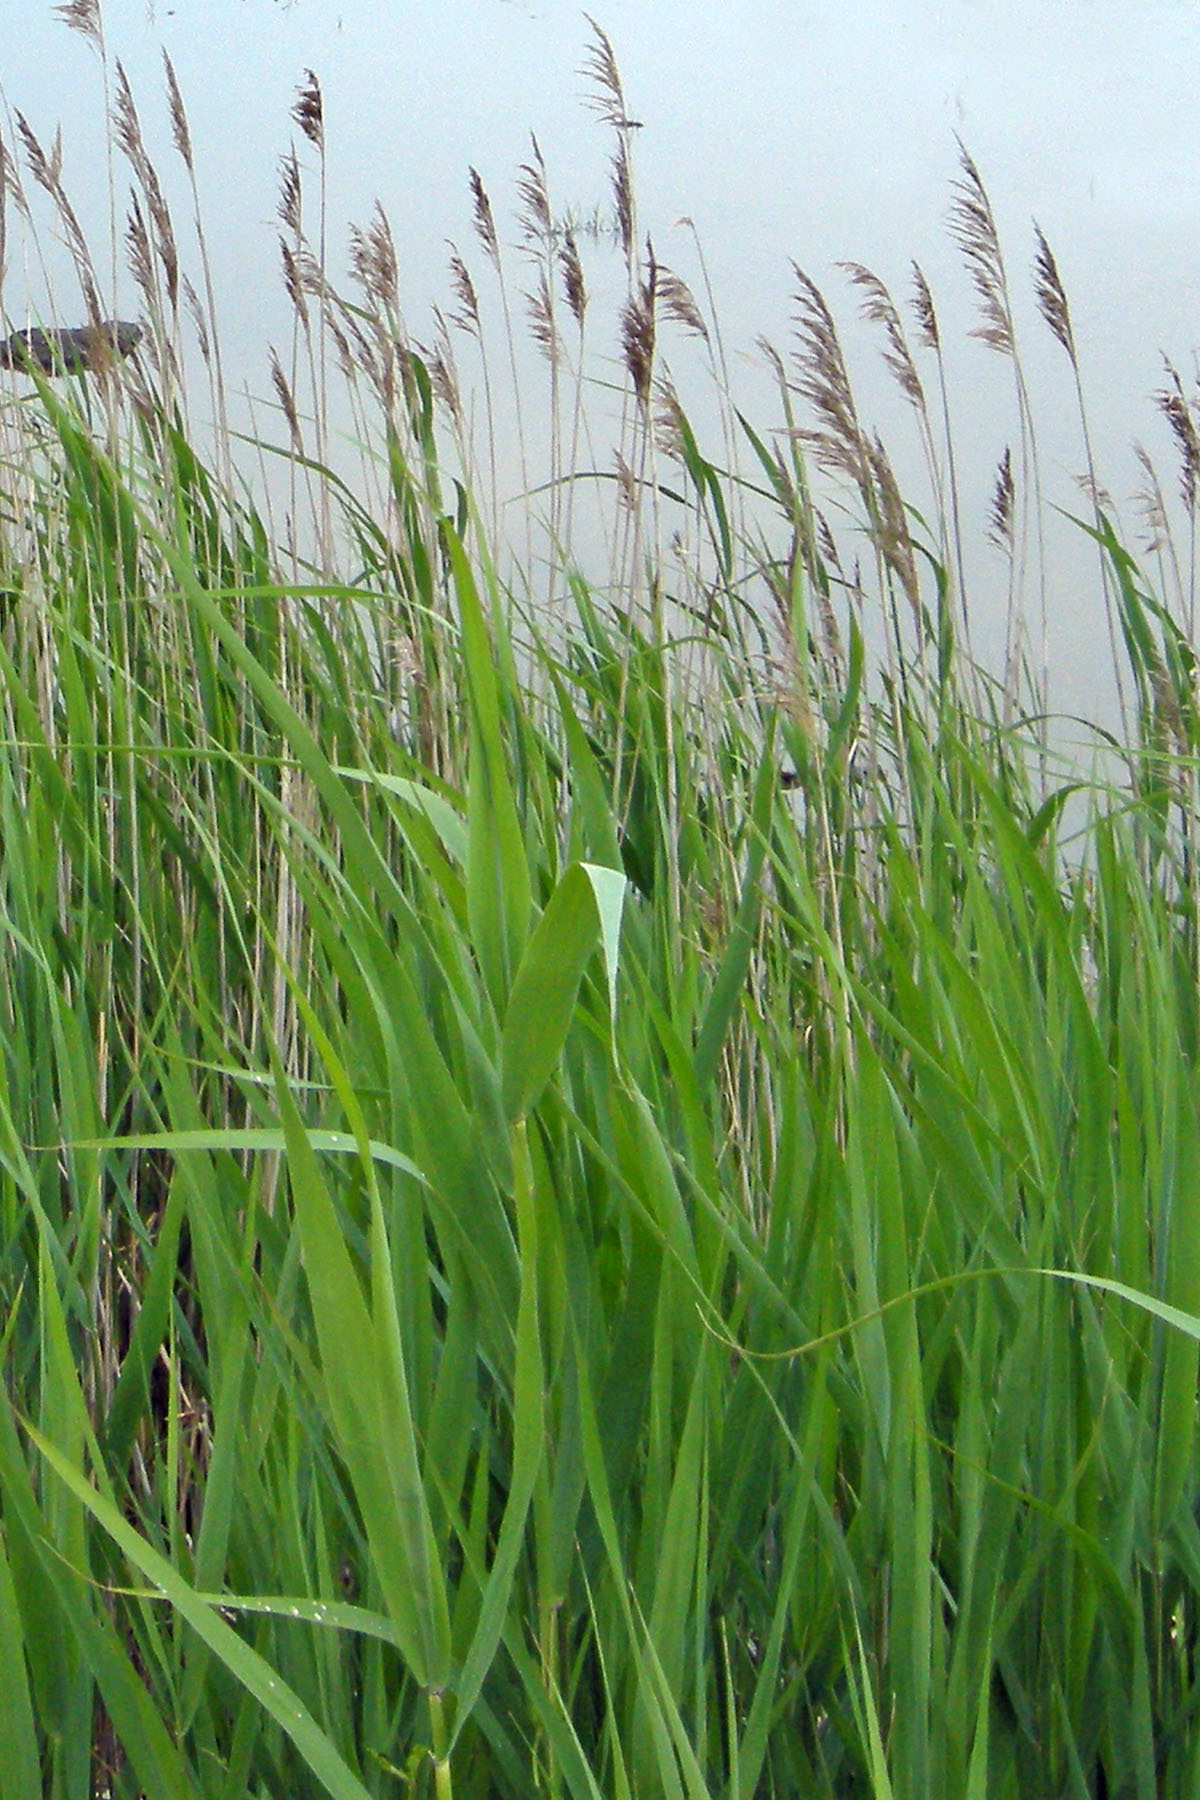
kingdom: Plantae
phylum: Tracheophyta
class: Liliopsida
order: Poales
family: Poaceae
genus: Phragmites
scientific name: Phragmites australis
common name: Common reed
